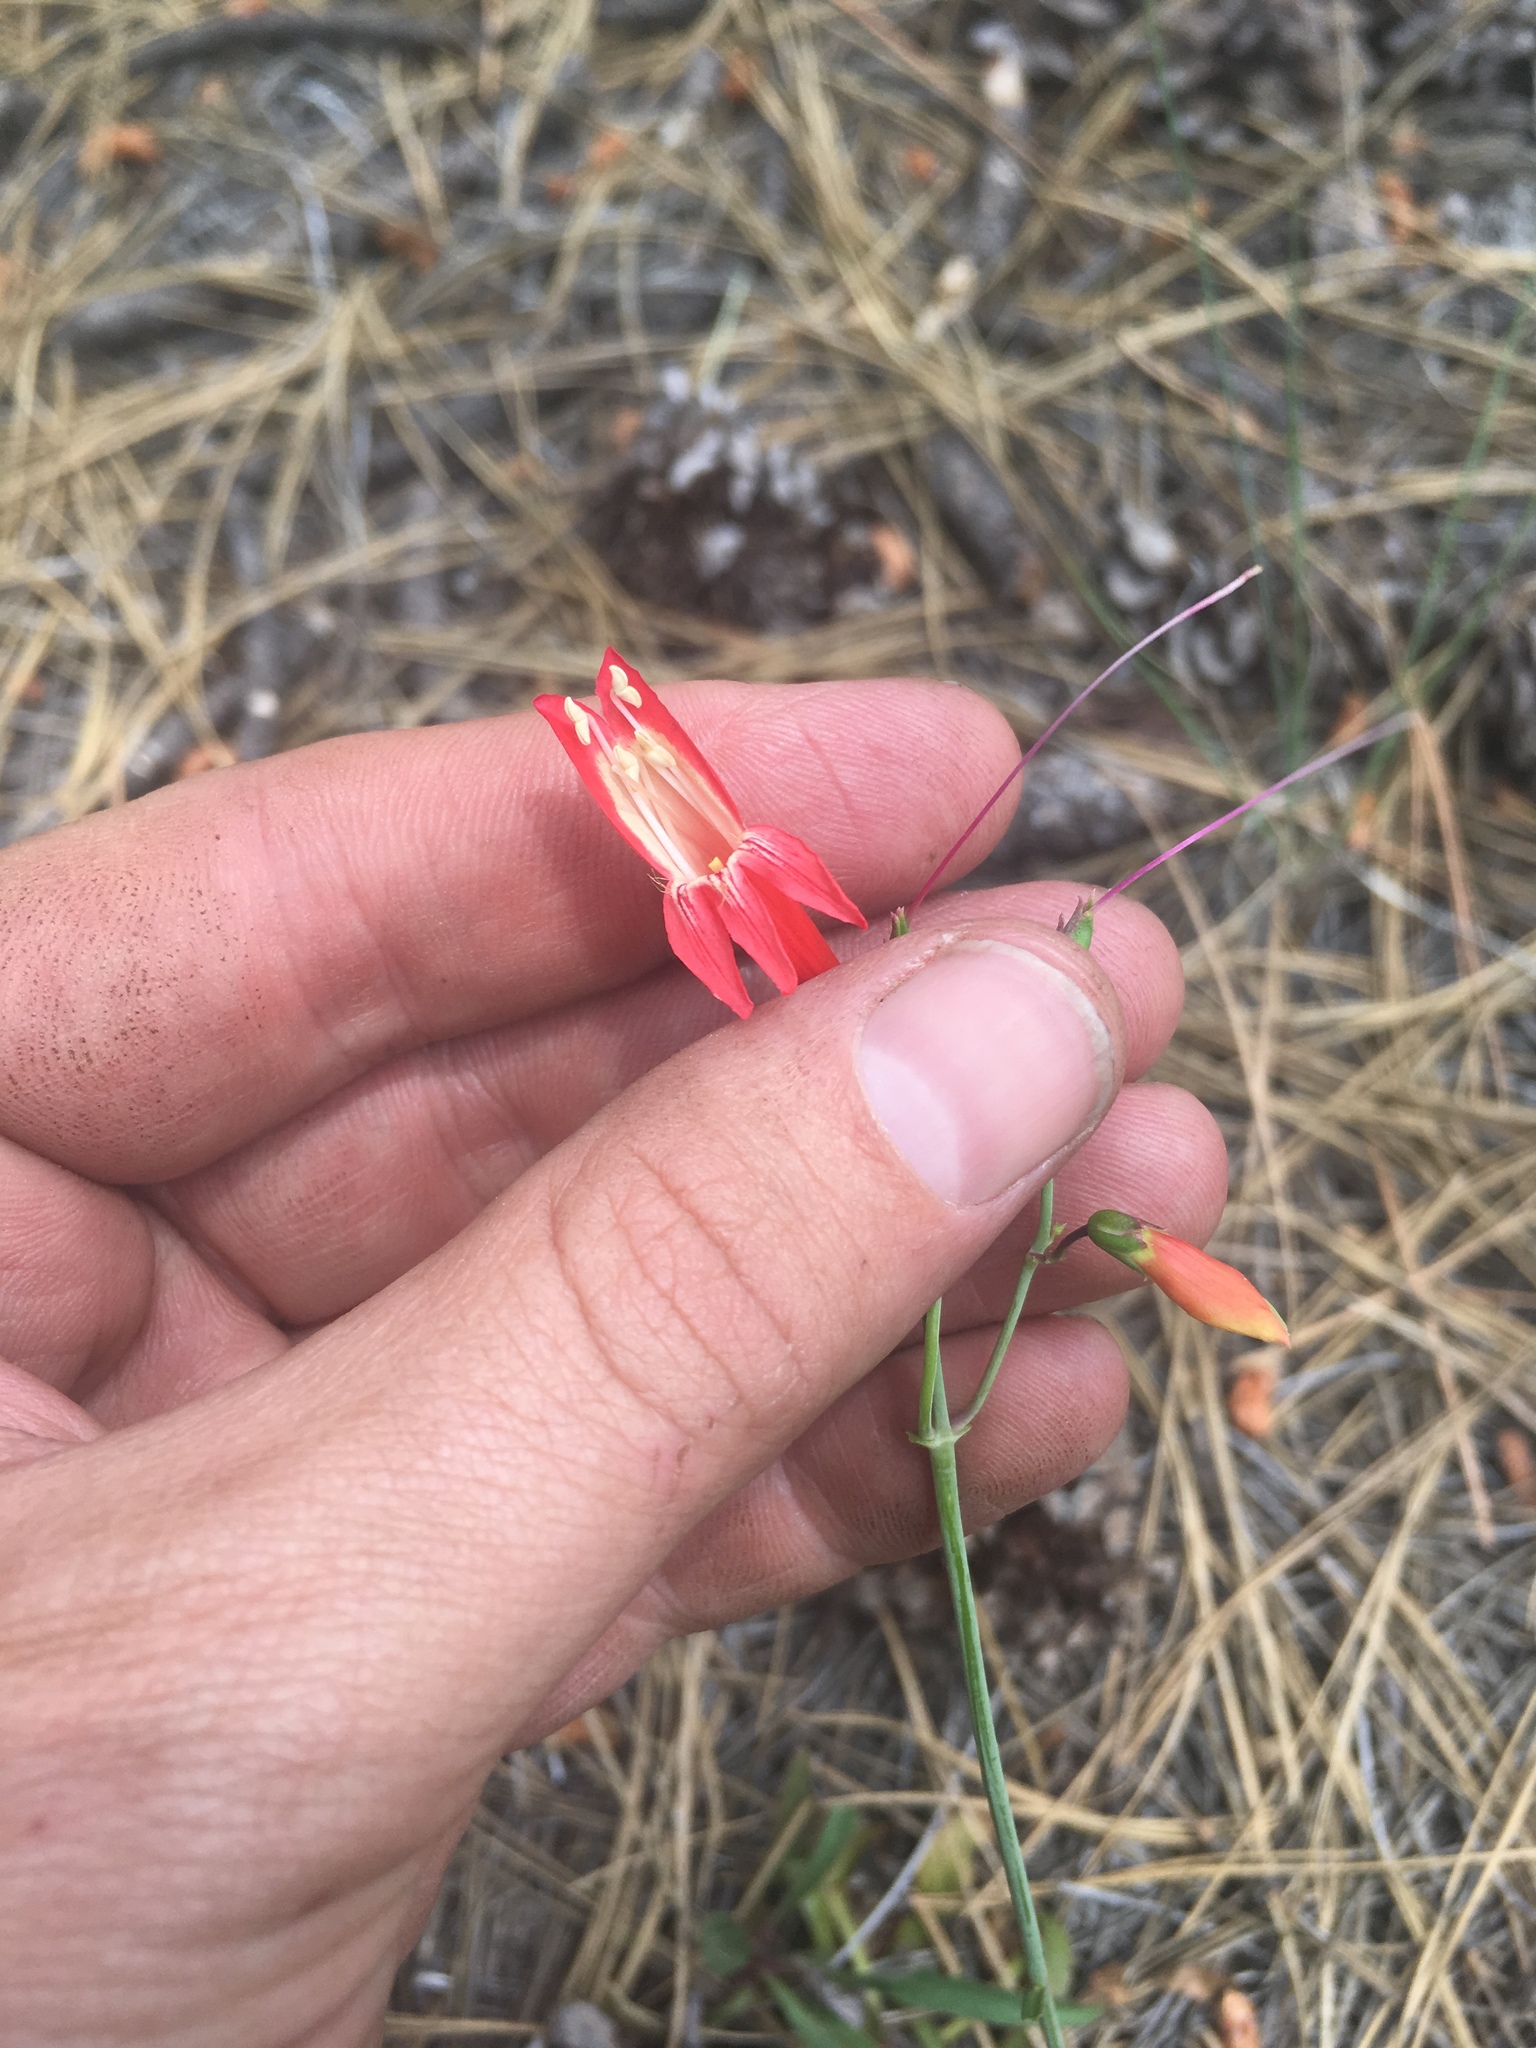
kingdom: Plantae
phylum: Tracheophyta
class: Magnoliopsida
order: Lamiales
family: Plantaginaceae
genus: Penstemon
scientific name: Penstemon barbatus
